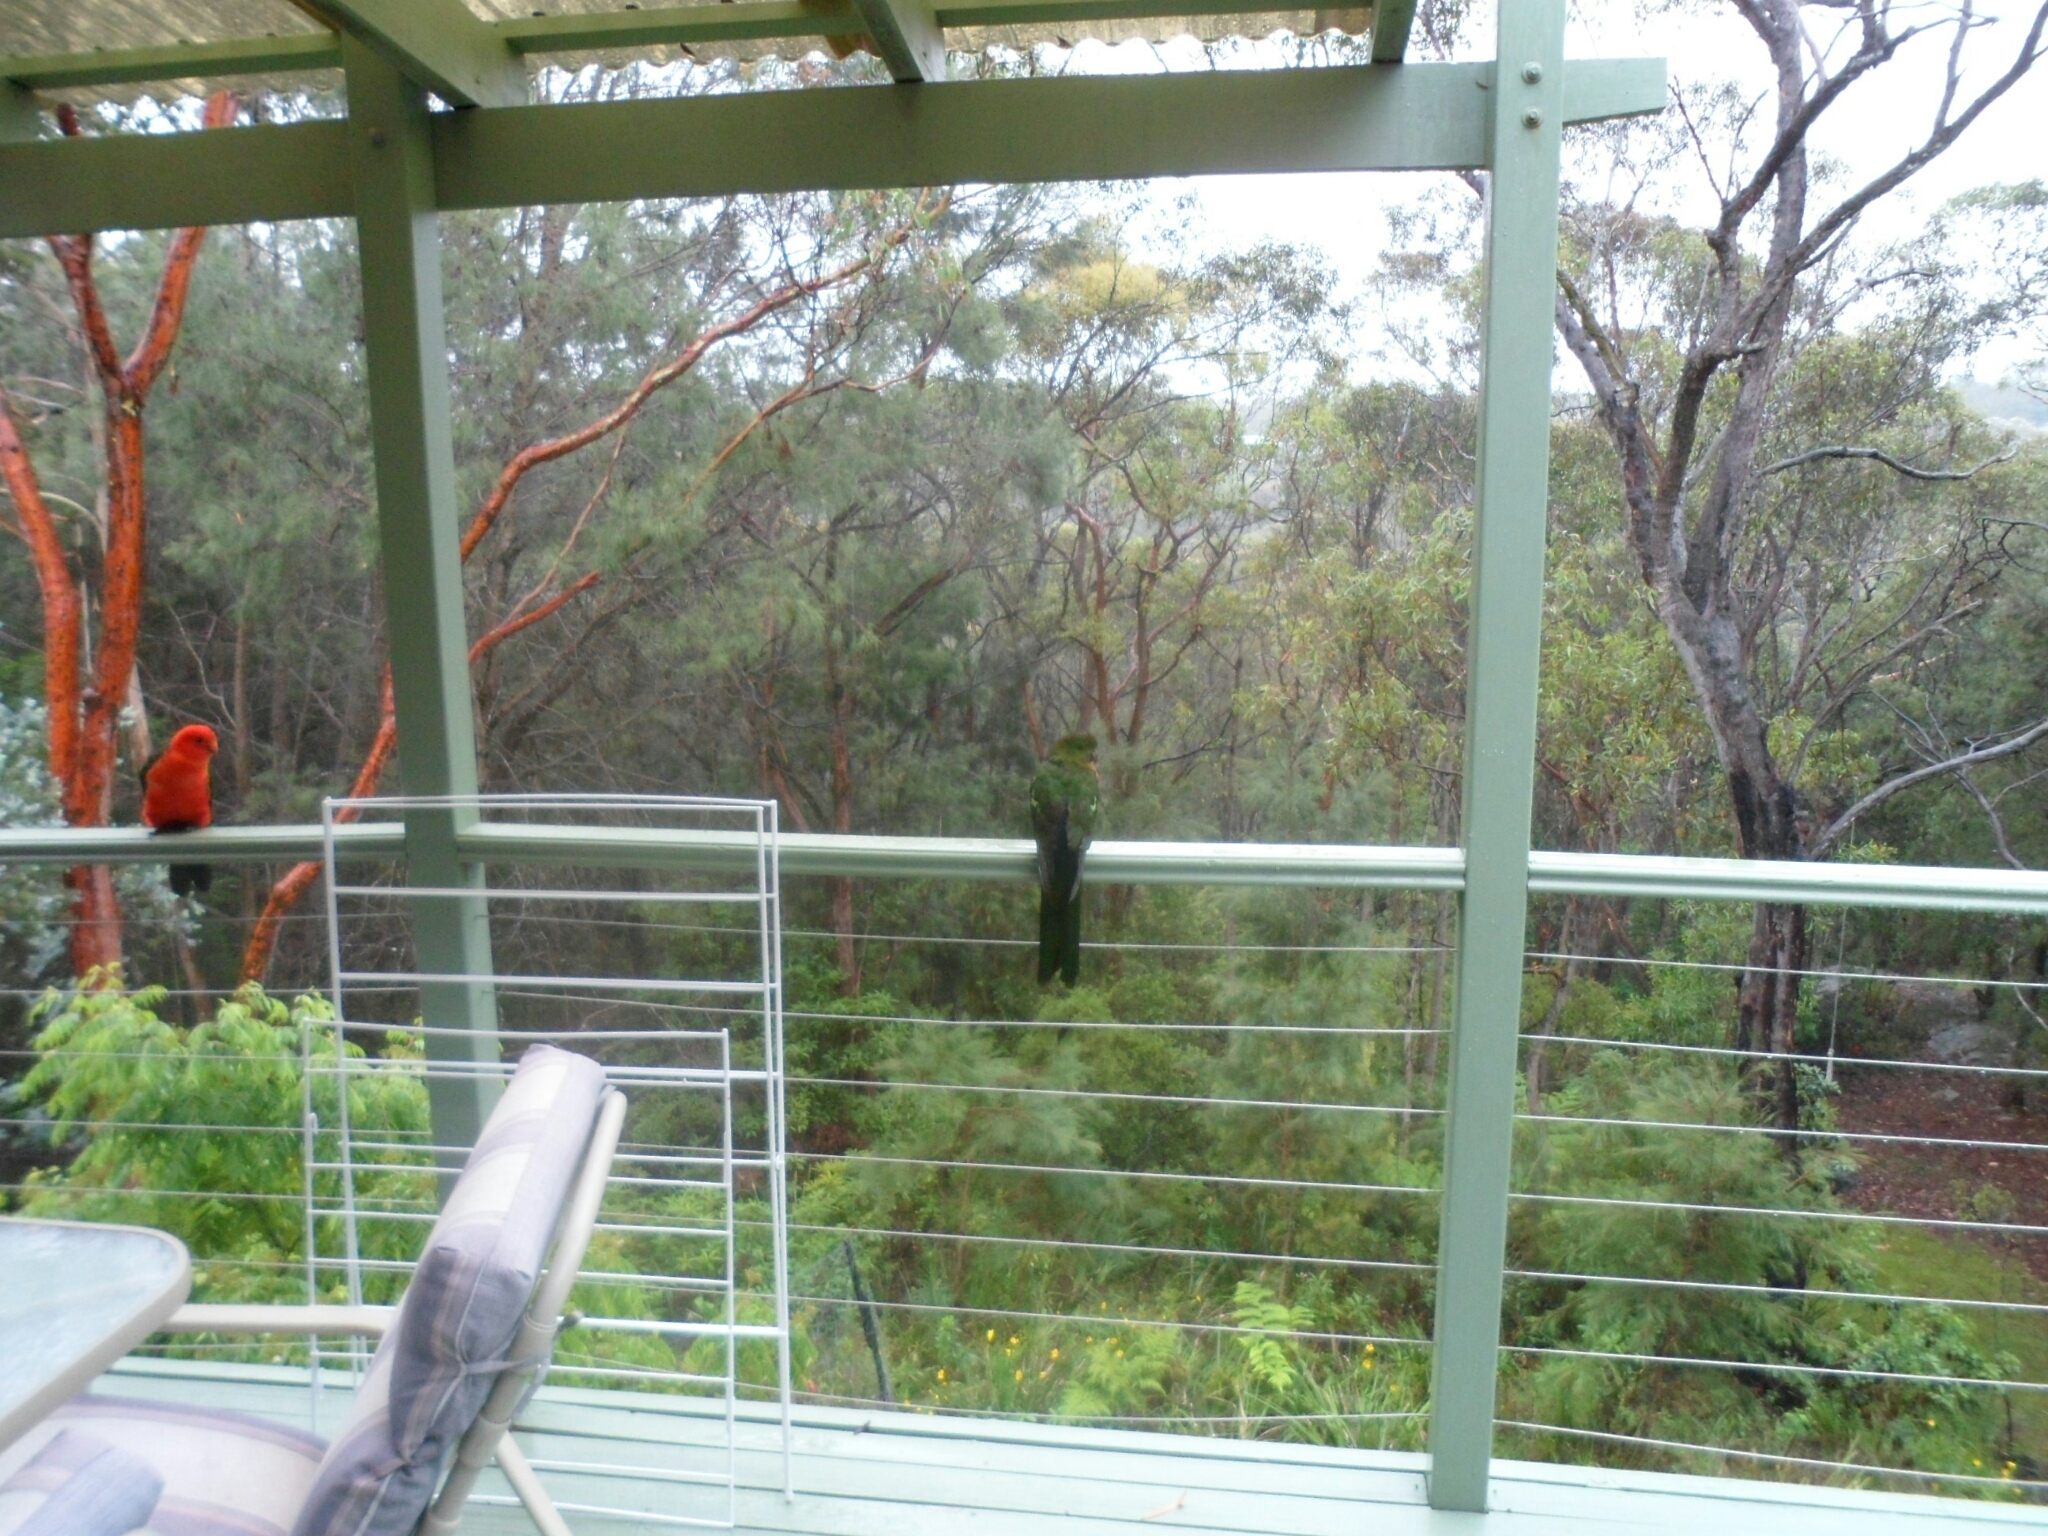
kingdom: Animalia
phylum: Chordata
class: Aves
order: Psittaciformes
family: Psittacidae
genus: Alisterus
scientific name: Alisterus scapularis
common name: Australian king parrot
